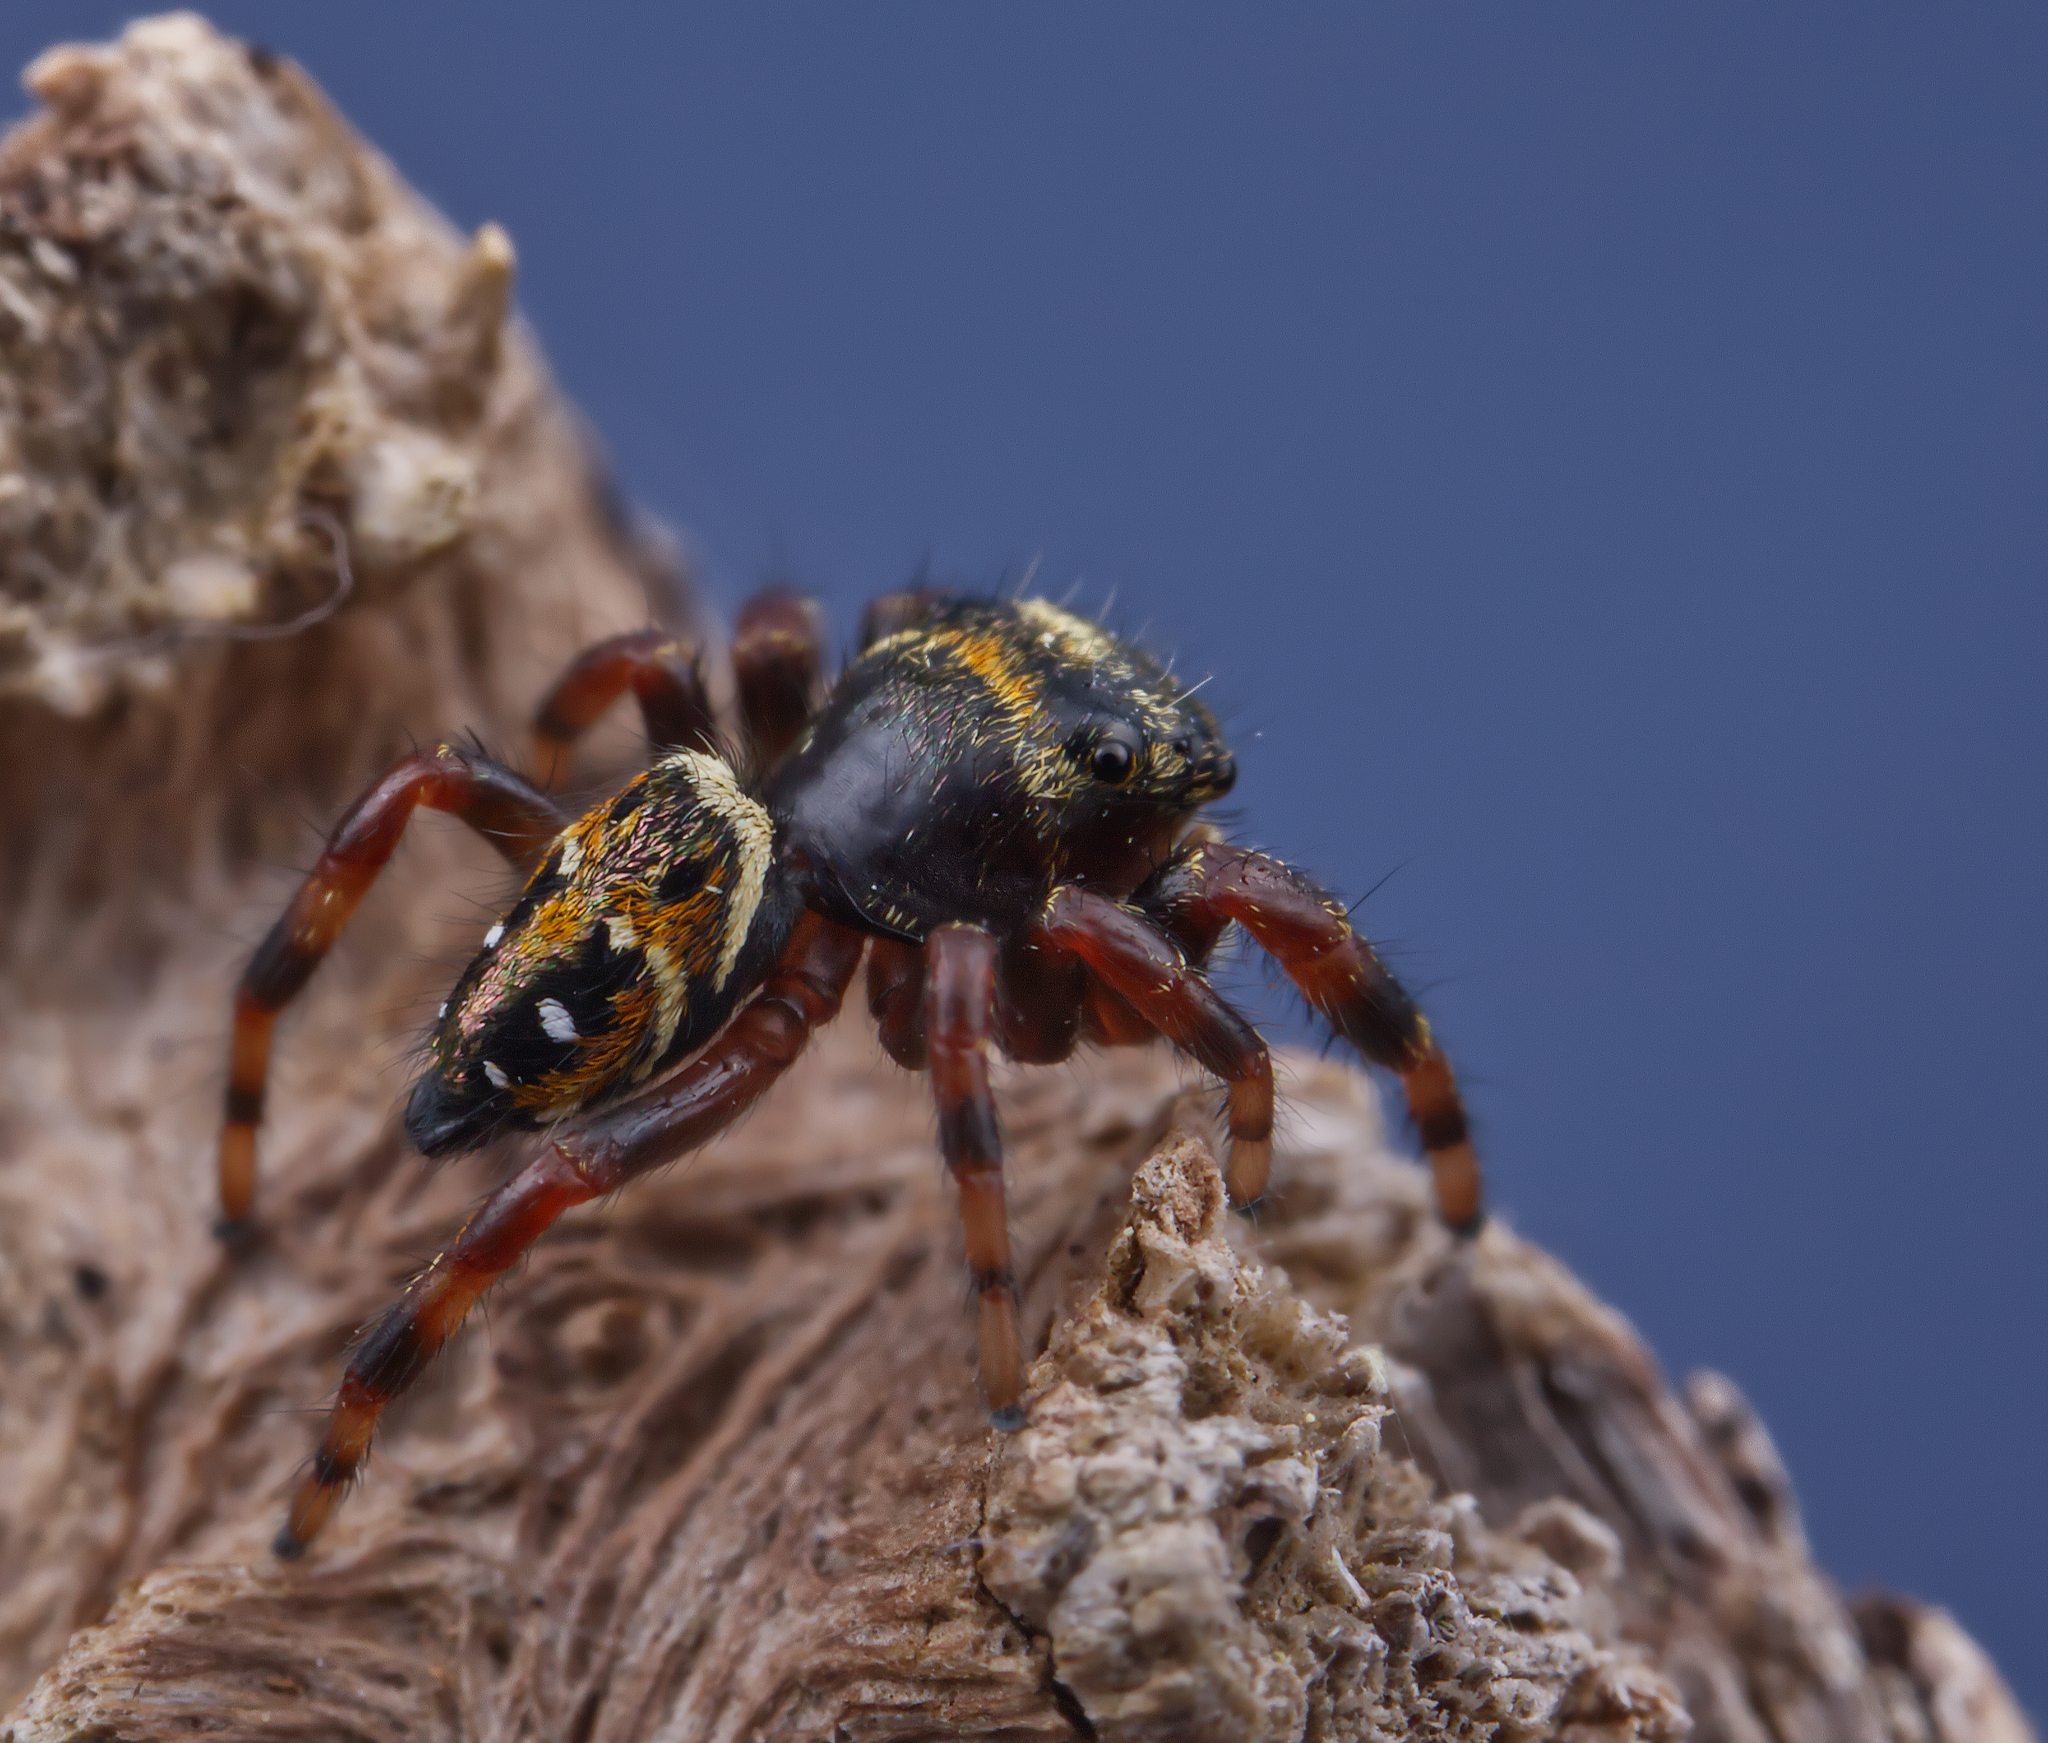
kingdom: Animalia
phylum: Arthropoda
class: Arachnida
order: Araneae
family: Salticidae
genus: Phidippus
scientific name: Phidippus clarus
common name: Brilliant jumping spider
